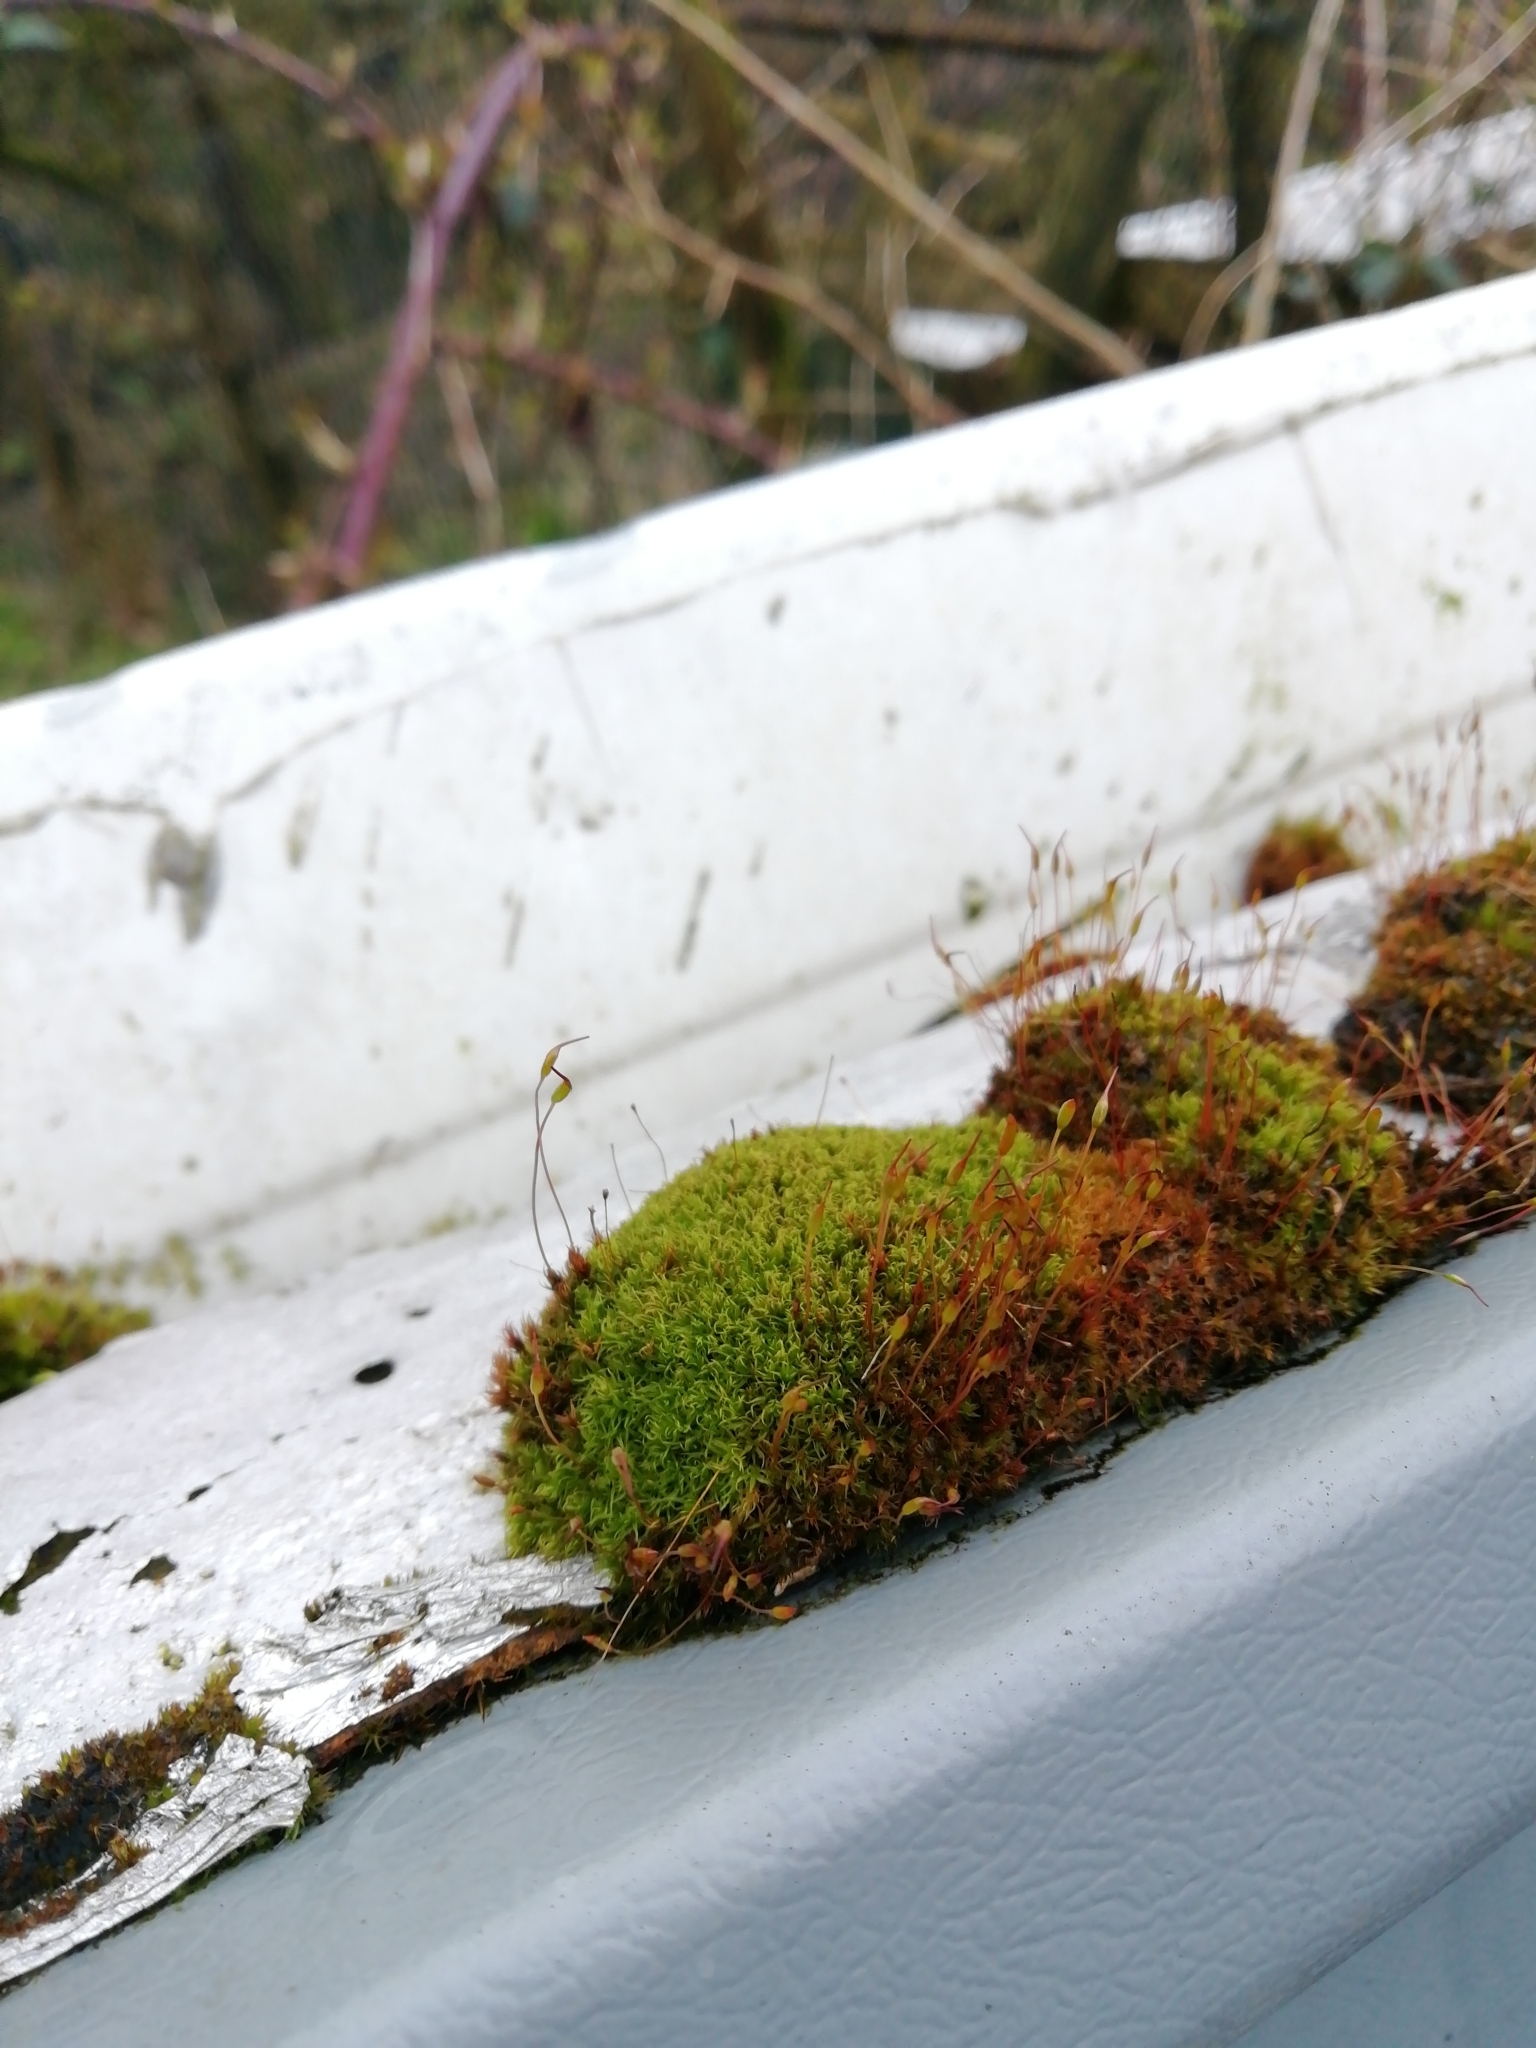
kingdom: Plantae
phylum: Bryophyta
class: Bryopsida
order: Dicranales
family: Ditrichaceae
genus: Ceratodon
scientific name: Ceratodon purpureus
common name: Redshank
